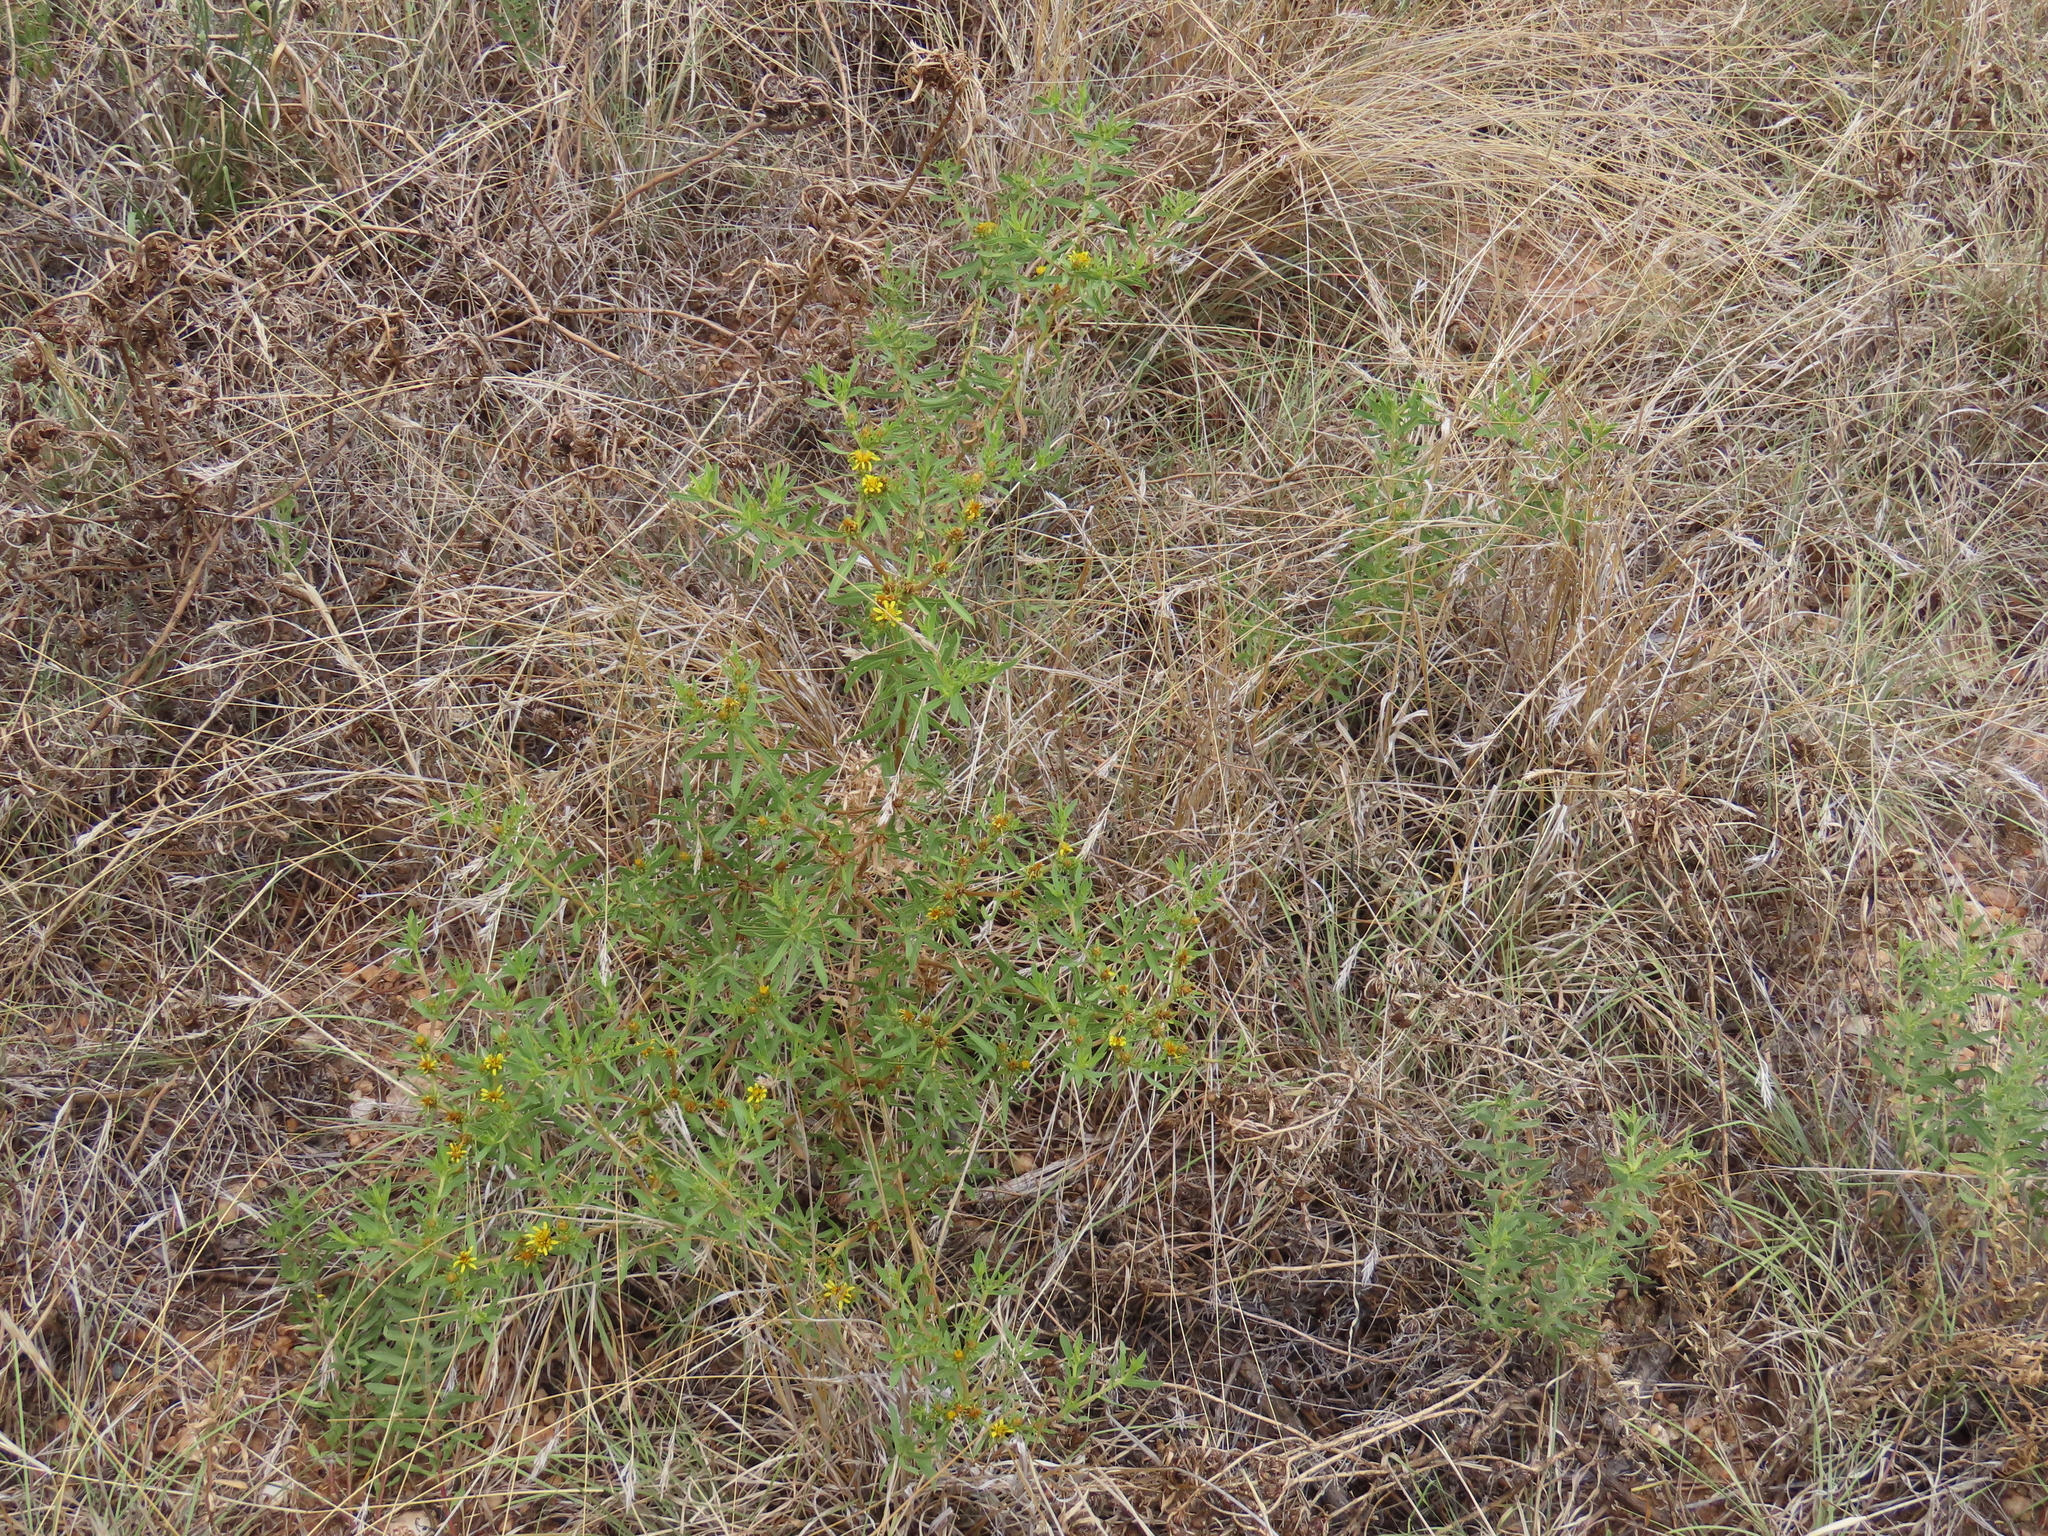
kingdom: Plantae
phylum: Tracheophyta
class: Magnoliopsida
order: Asterales
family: Asteraceae
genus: Geigeria
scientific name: Geigeria pectidea
